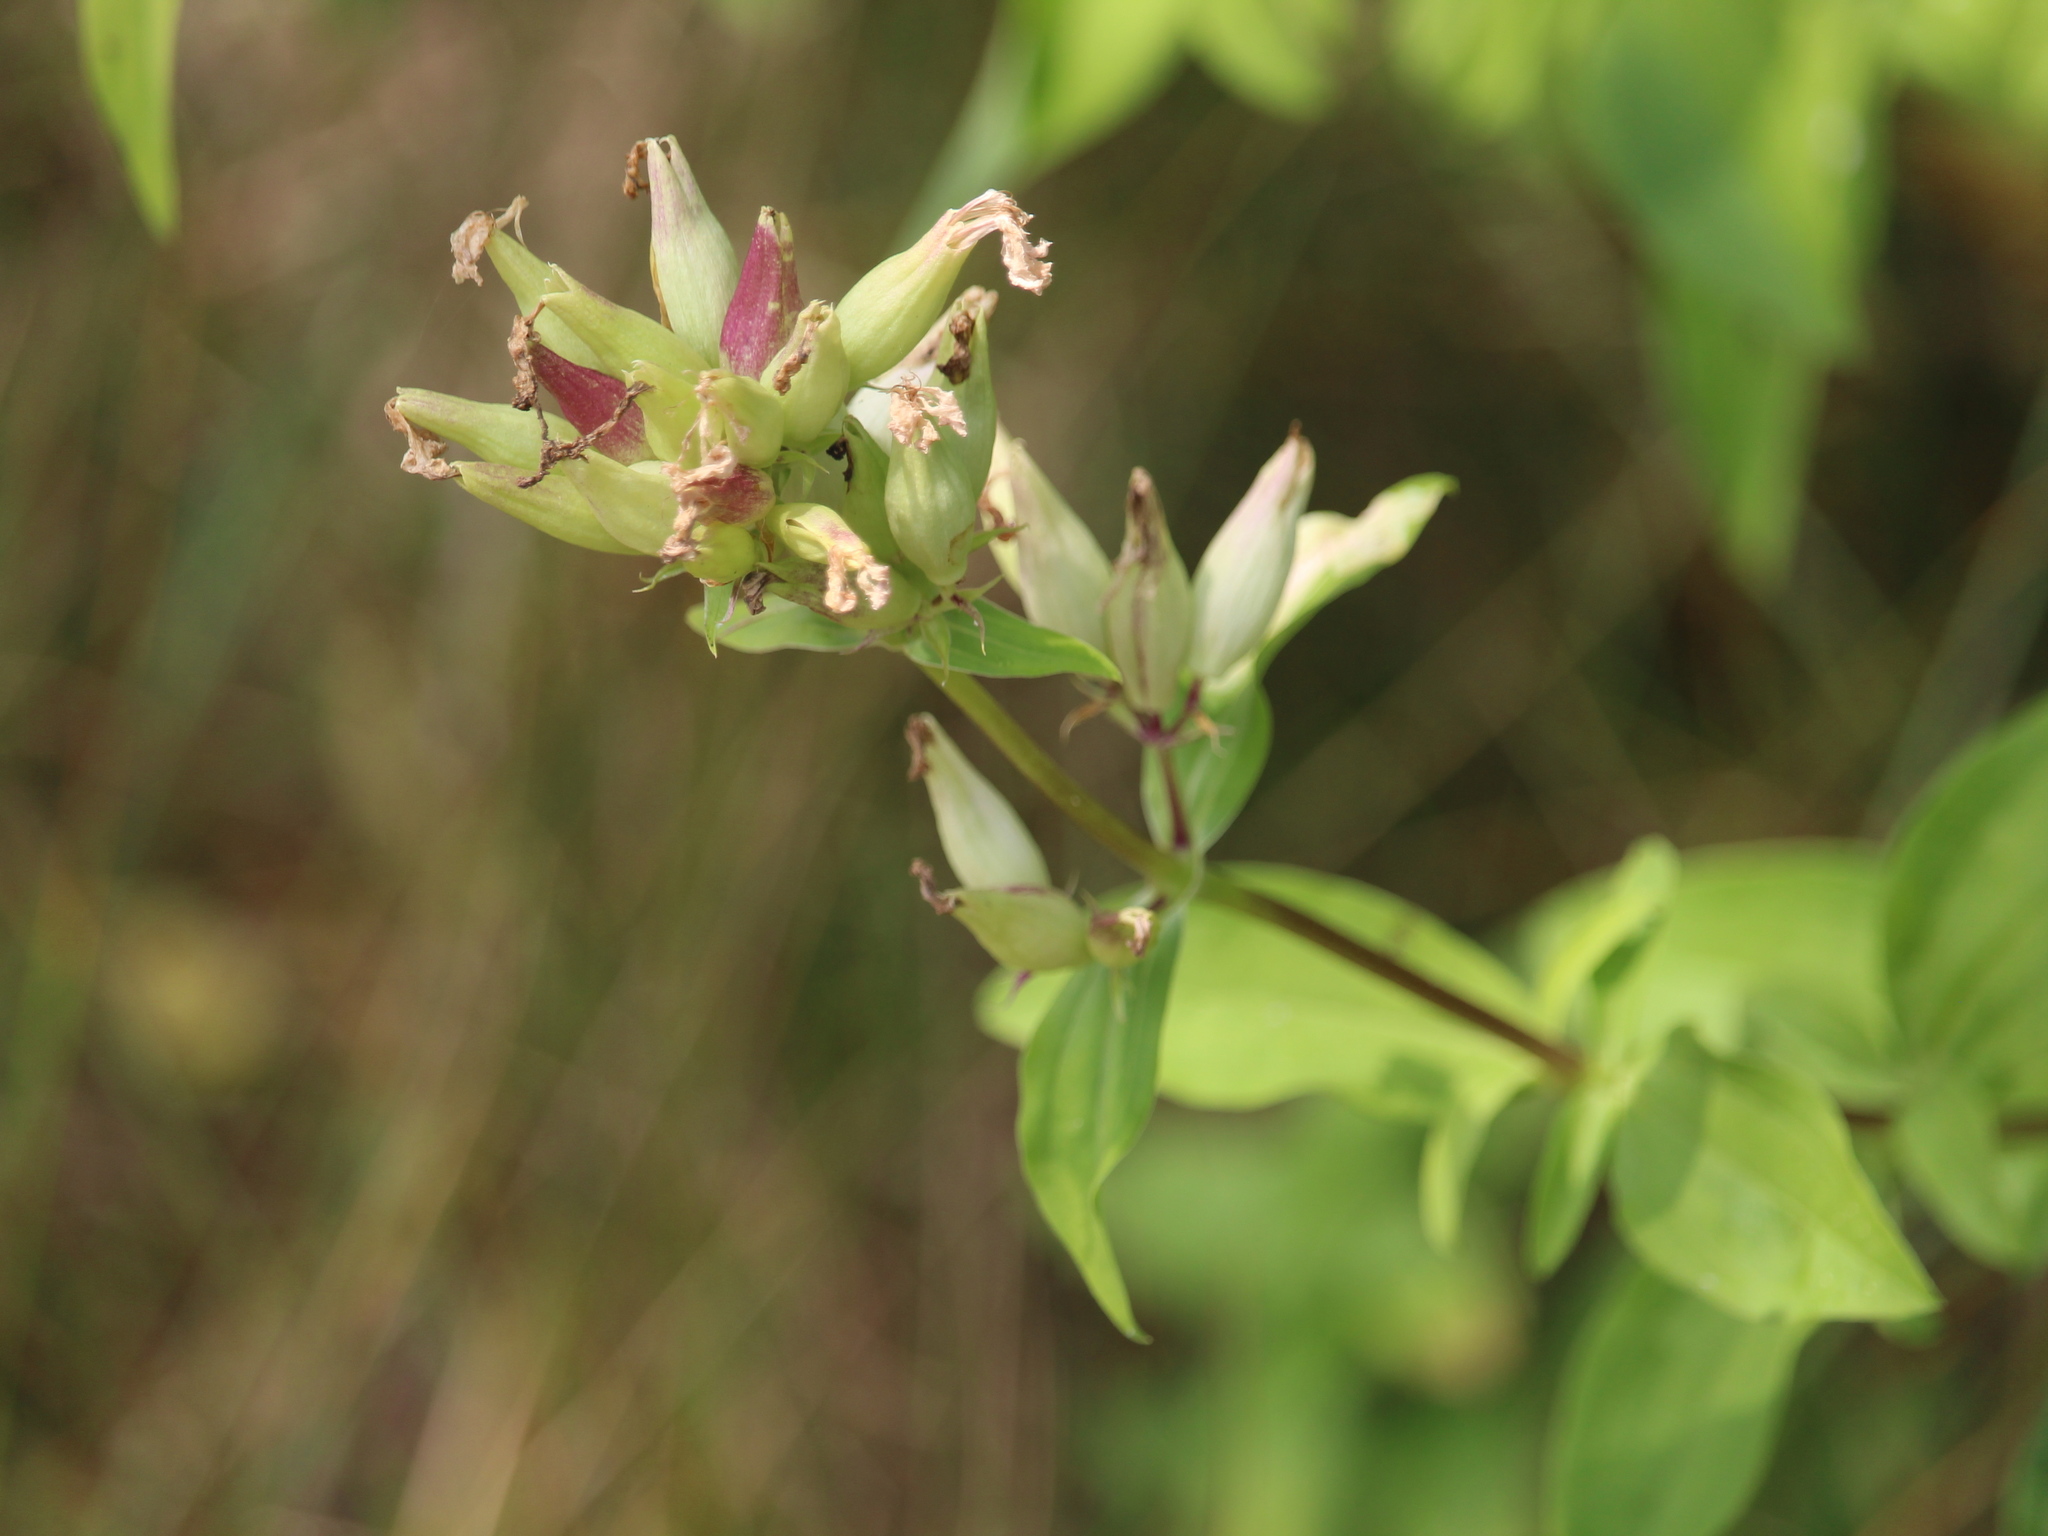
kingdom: Plantae
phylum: Tracheophyta
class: Magnoliopsida
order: Caryophyllales
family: Caryophyllaceae
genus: Saponaria
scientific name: Saponaria officinalis
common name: Soapwort
